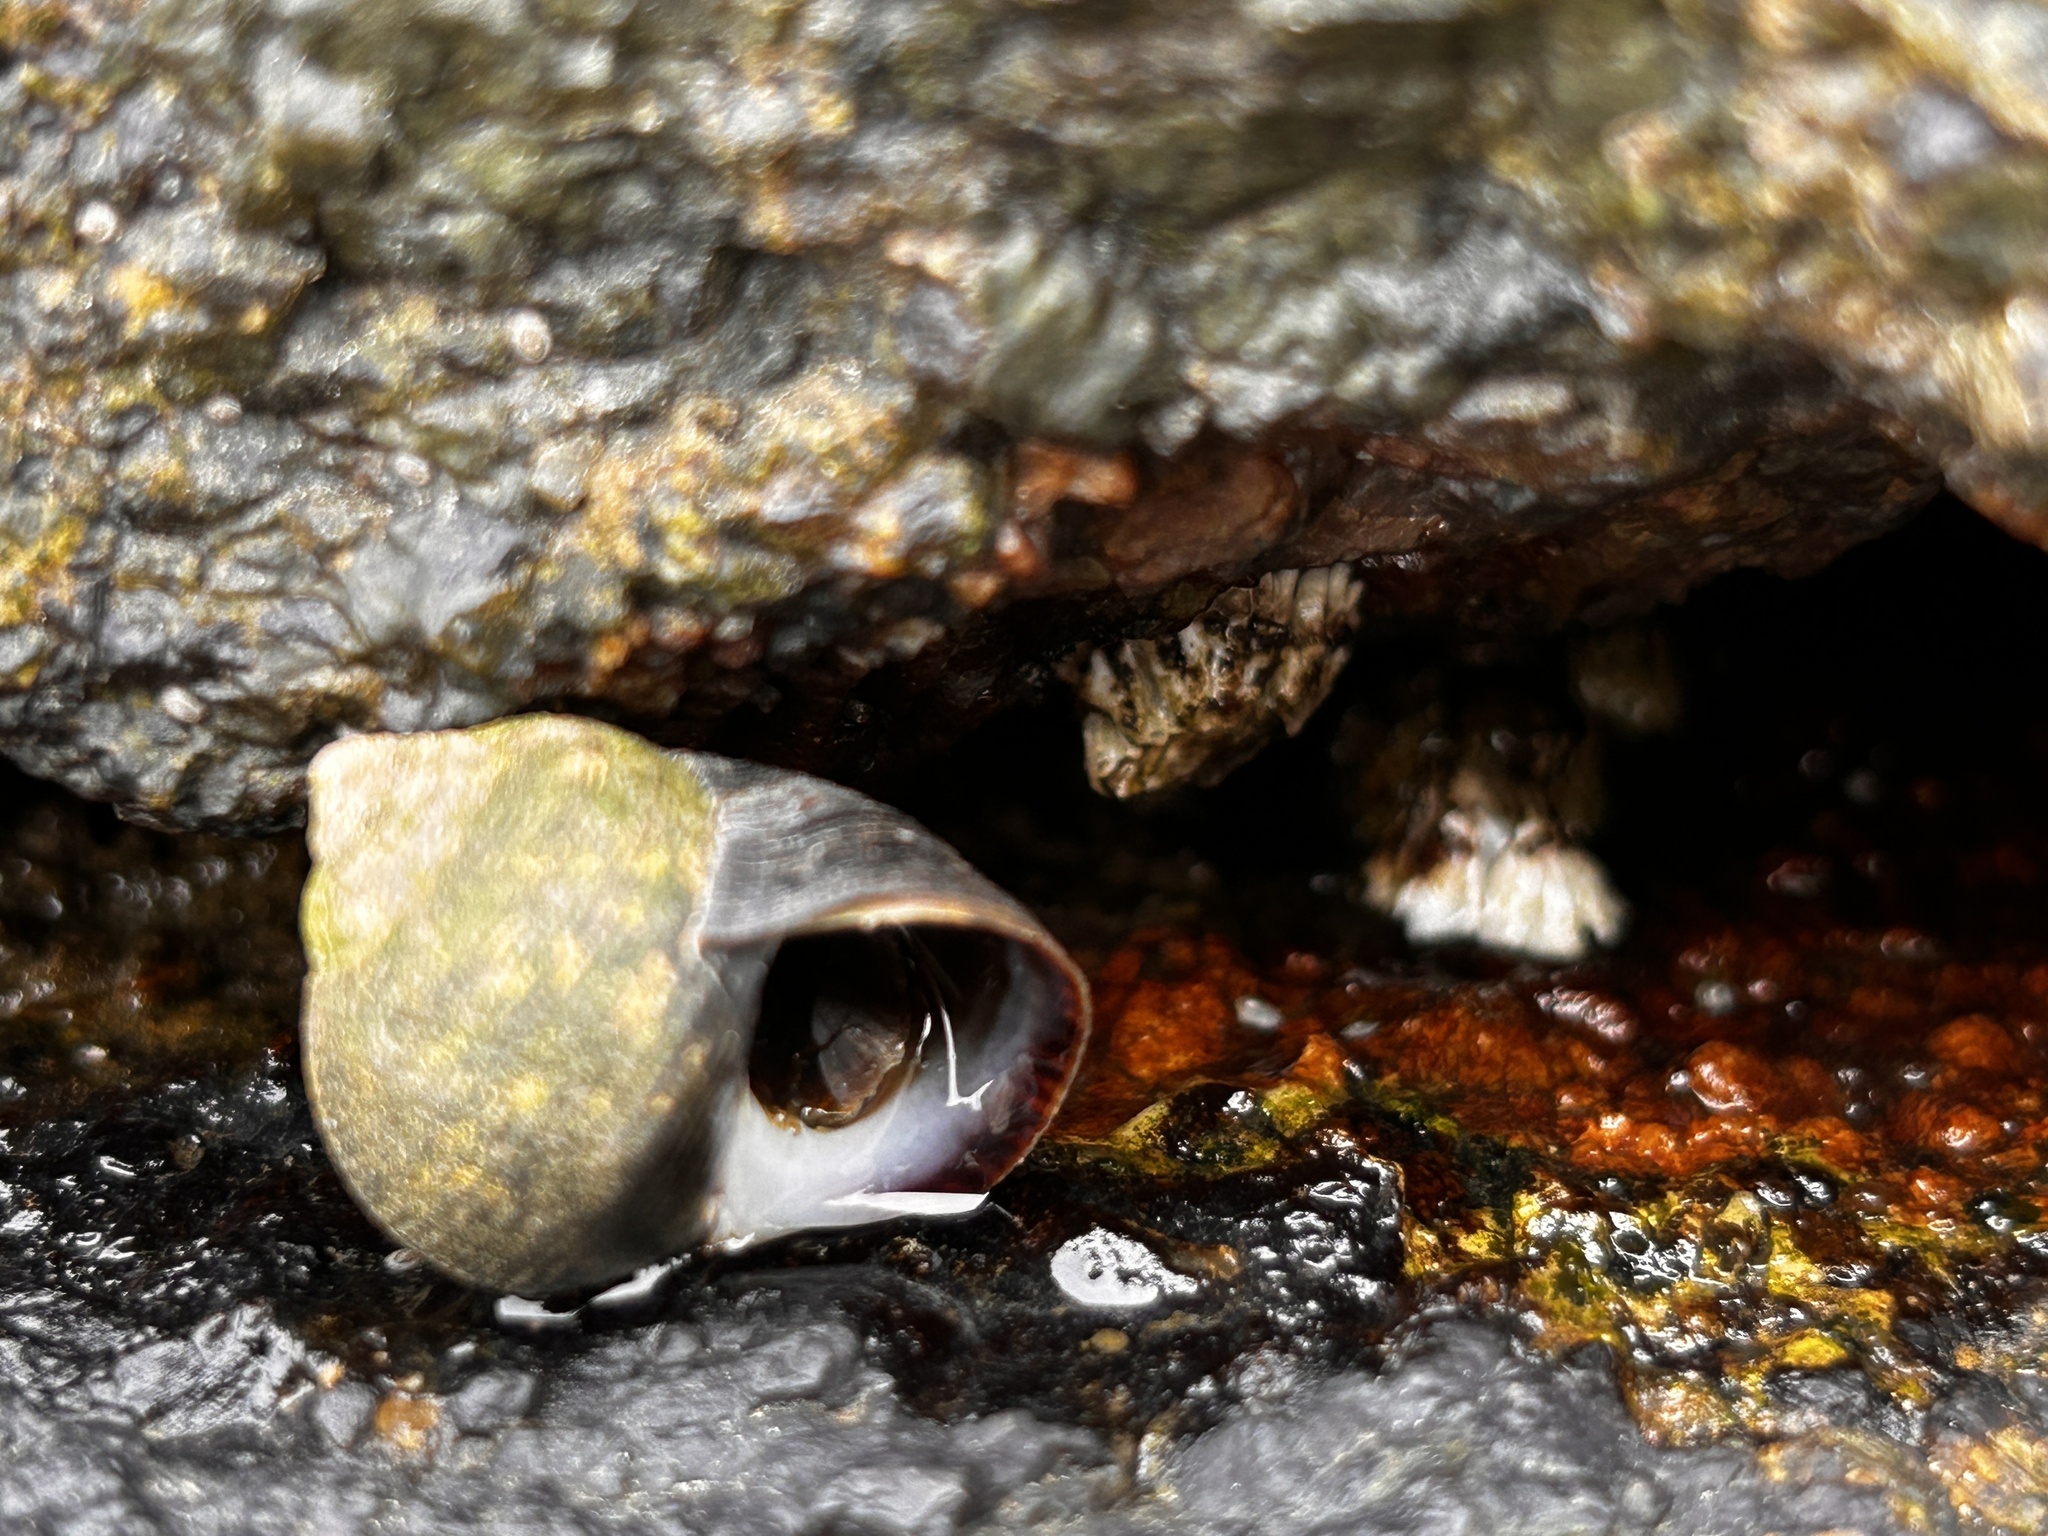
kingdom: Animalia
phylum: Mollusca
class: Gastropoda
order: Littorinimorpha
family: Littorinidae
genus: Littorina
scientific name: Littorina littorea
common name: Common periwinkle
